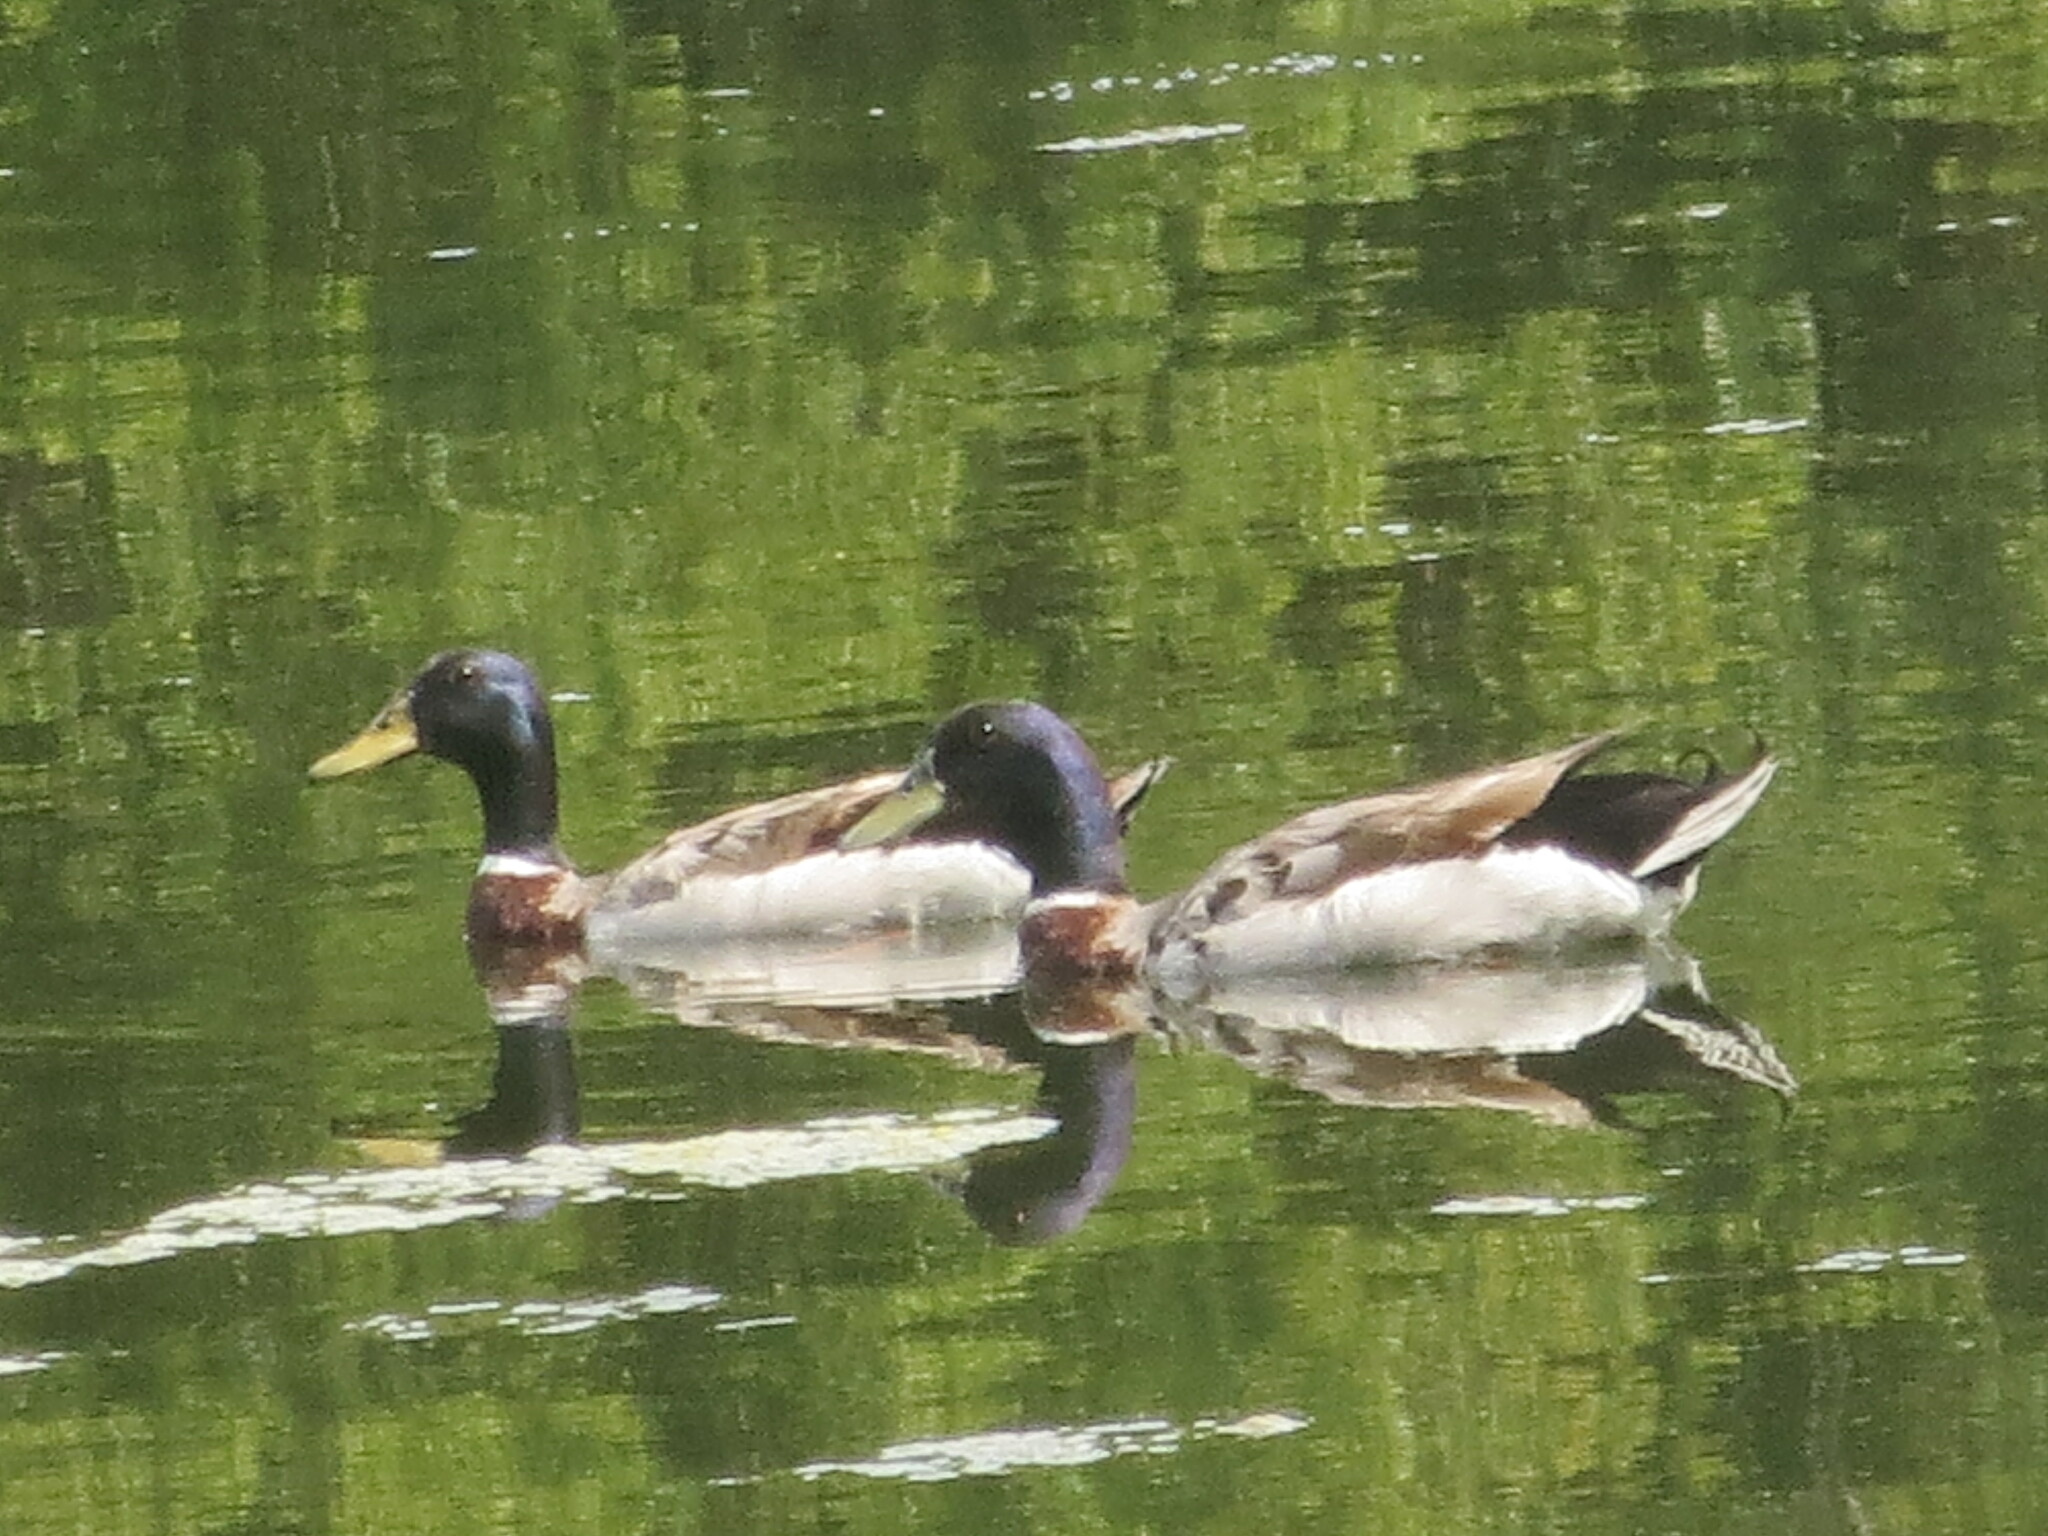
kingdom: Animalia
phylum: Chordata
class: Aves
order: Anseriformes
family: Anatidae
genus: Anas
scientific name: Anas platyrhynchos
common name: Mallard
